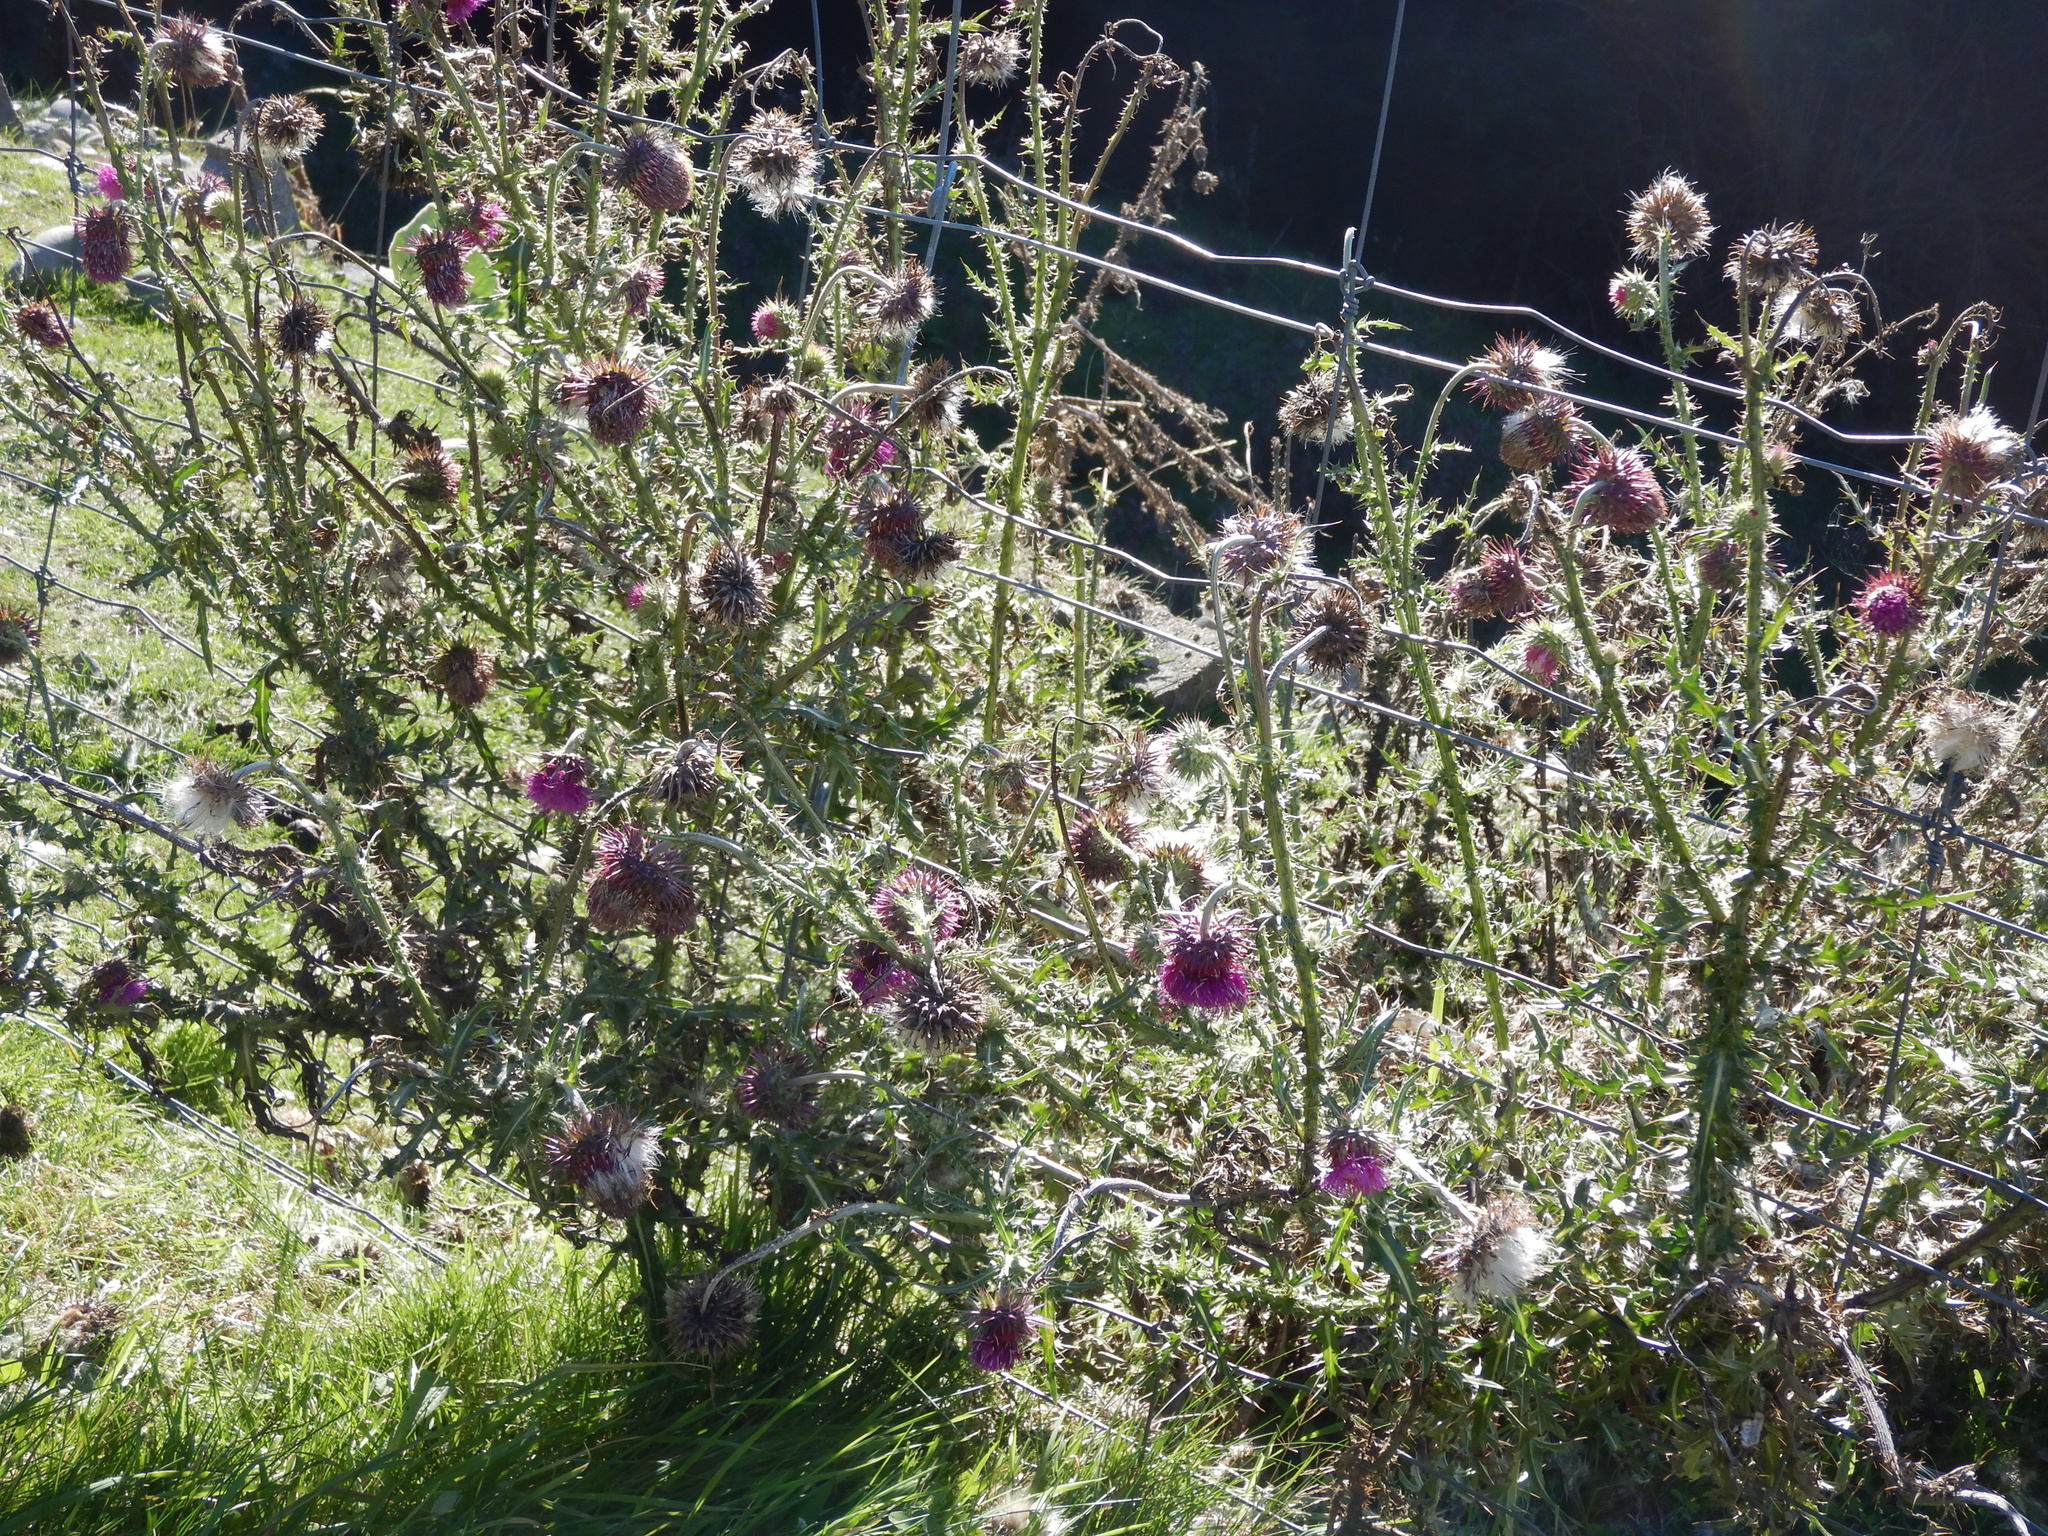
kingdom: Plantae
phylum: Tracheophyta
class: Magnoliopsida
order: Asterales
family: Asteraceae
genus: Carduus
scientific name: Carduus nutans
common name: Musk thistle
